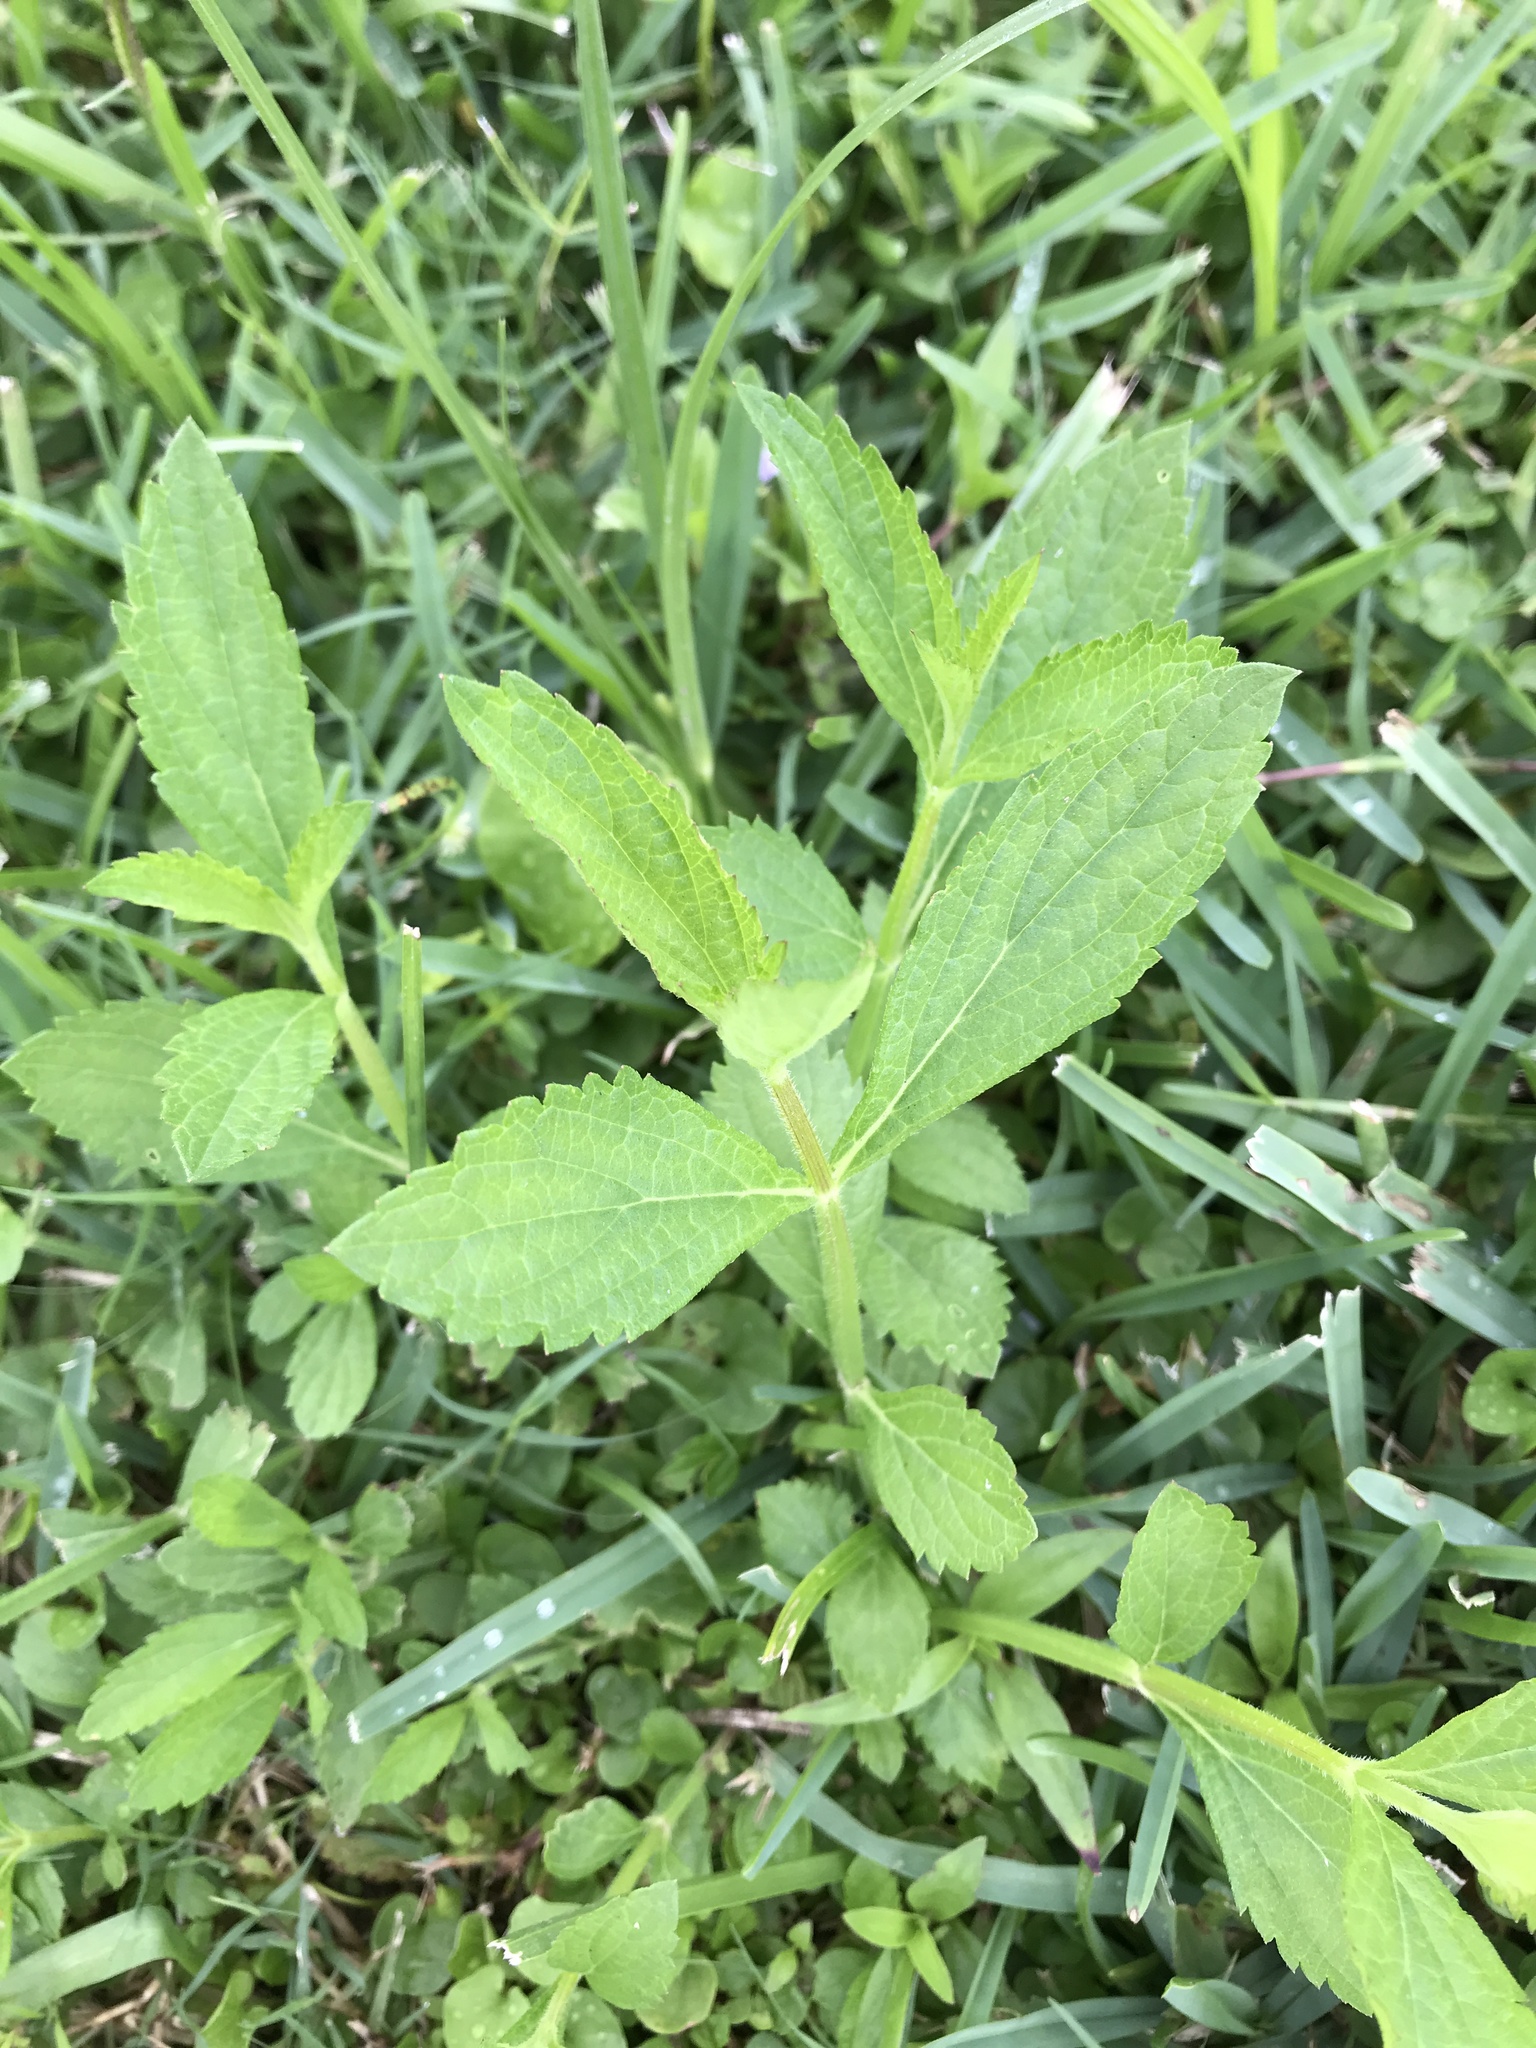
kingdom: Plantae
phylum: Tracheophyta
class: Magnoliopsida
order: Lamiales
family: Verbenaceae
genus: Phyla
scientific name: Phyla lanceolata
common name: Northern fogfruit
